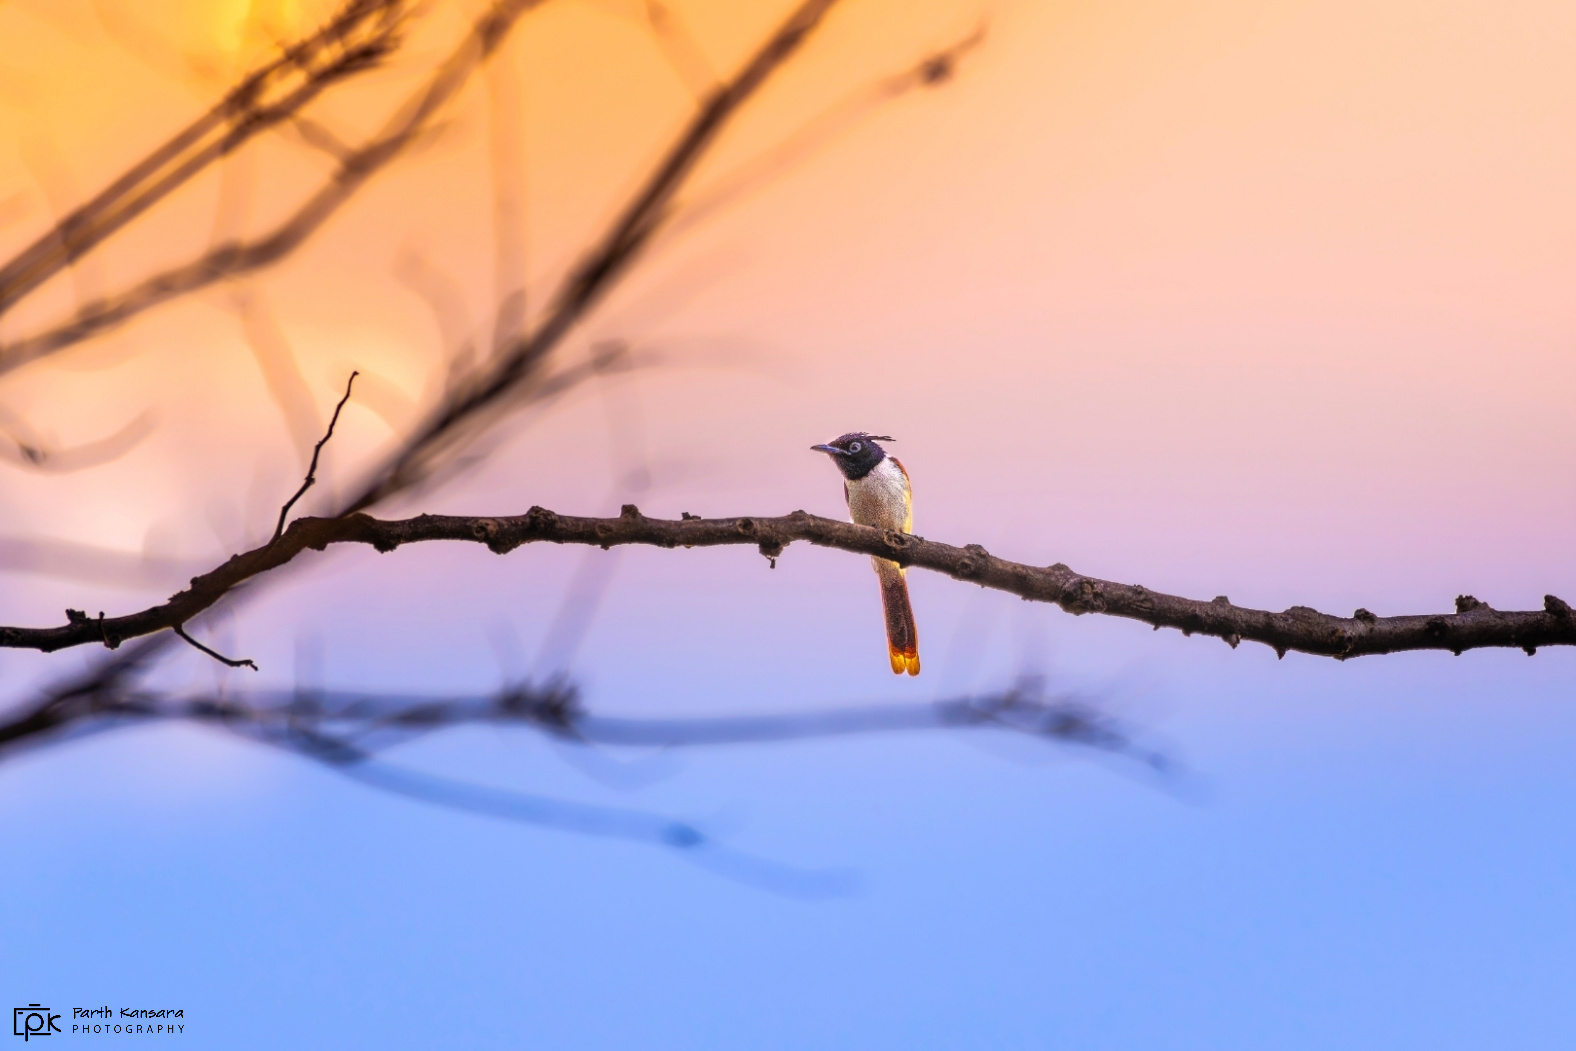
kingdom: Animalia
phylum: Chordata
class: Aves
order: Passeriformes
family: Monarchidae
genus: Terpsiphone
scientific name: Terpsiphone paradisi
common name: Indian paradise flycatcher
